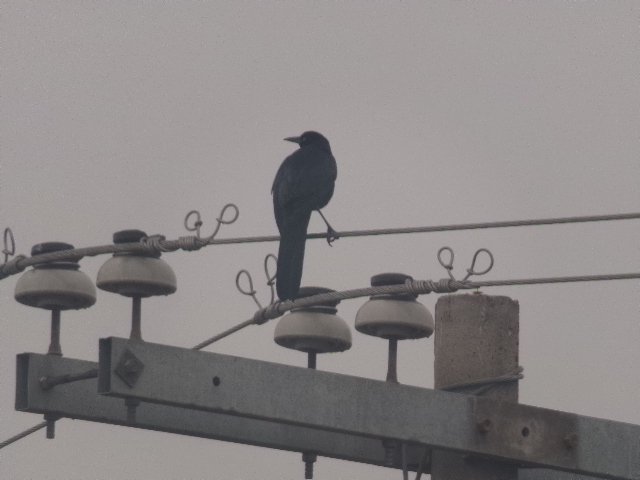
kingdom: Animalia
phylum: Chordata
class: Aves
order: Passeriformes
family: Icteridae
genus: Quiscalus
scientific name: Quiscalus mexicanus
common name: Great-tailed grackle
